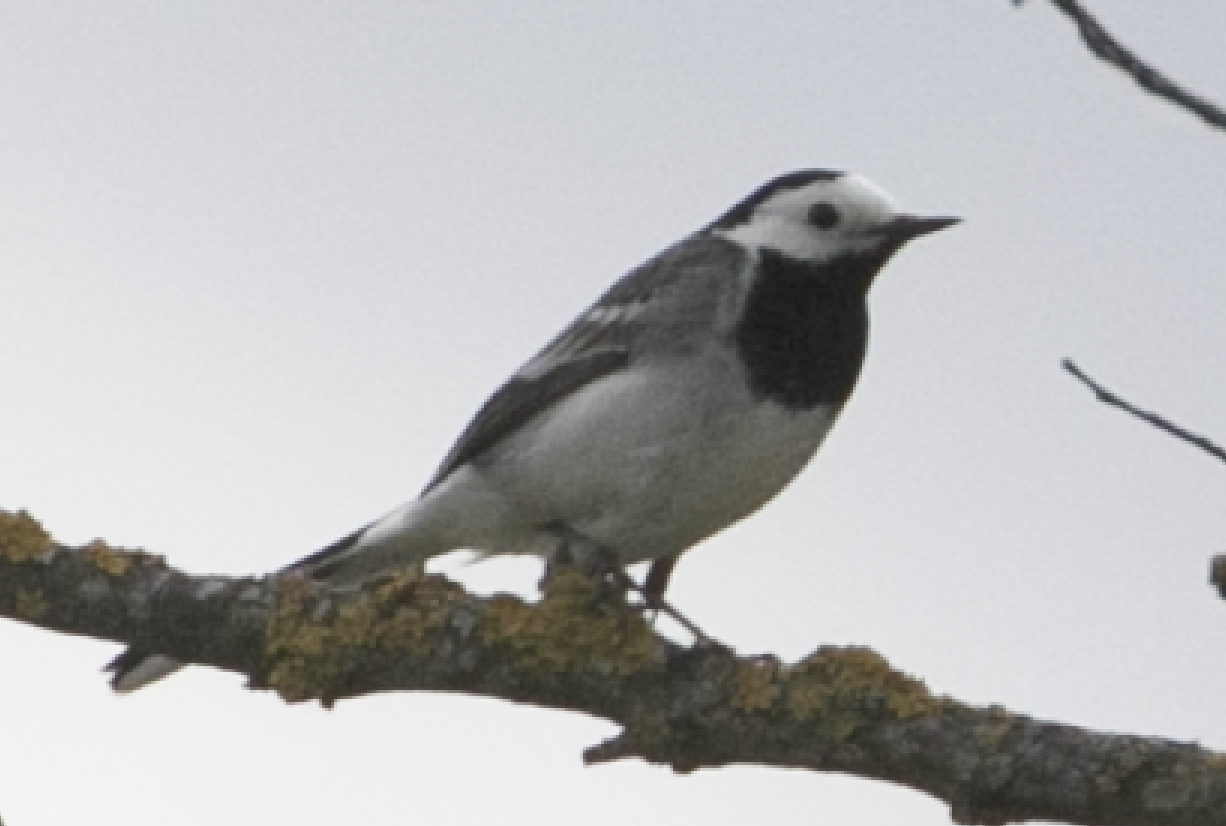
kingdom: Animalia
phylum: Chordata
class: Aves
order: Passeriformes
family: Motacillidae
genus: Motacilla
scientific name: Motacilla alba
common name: White wagtail
